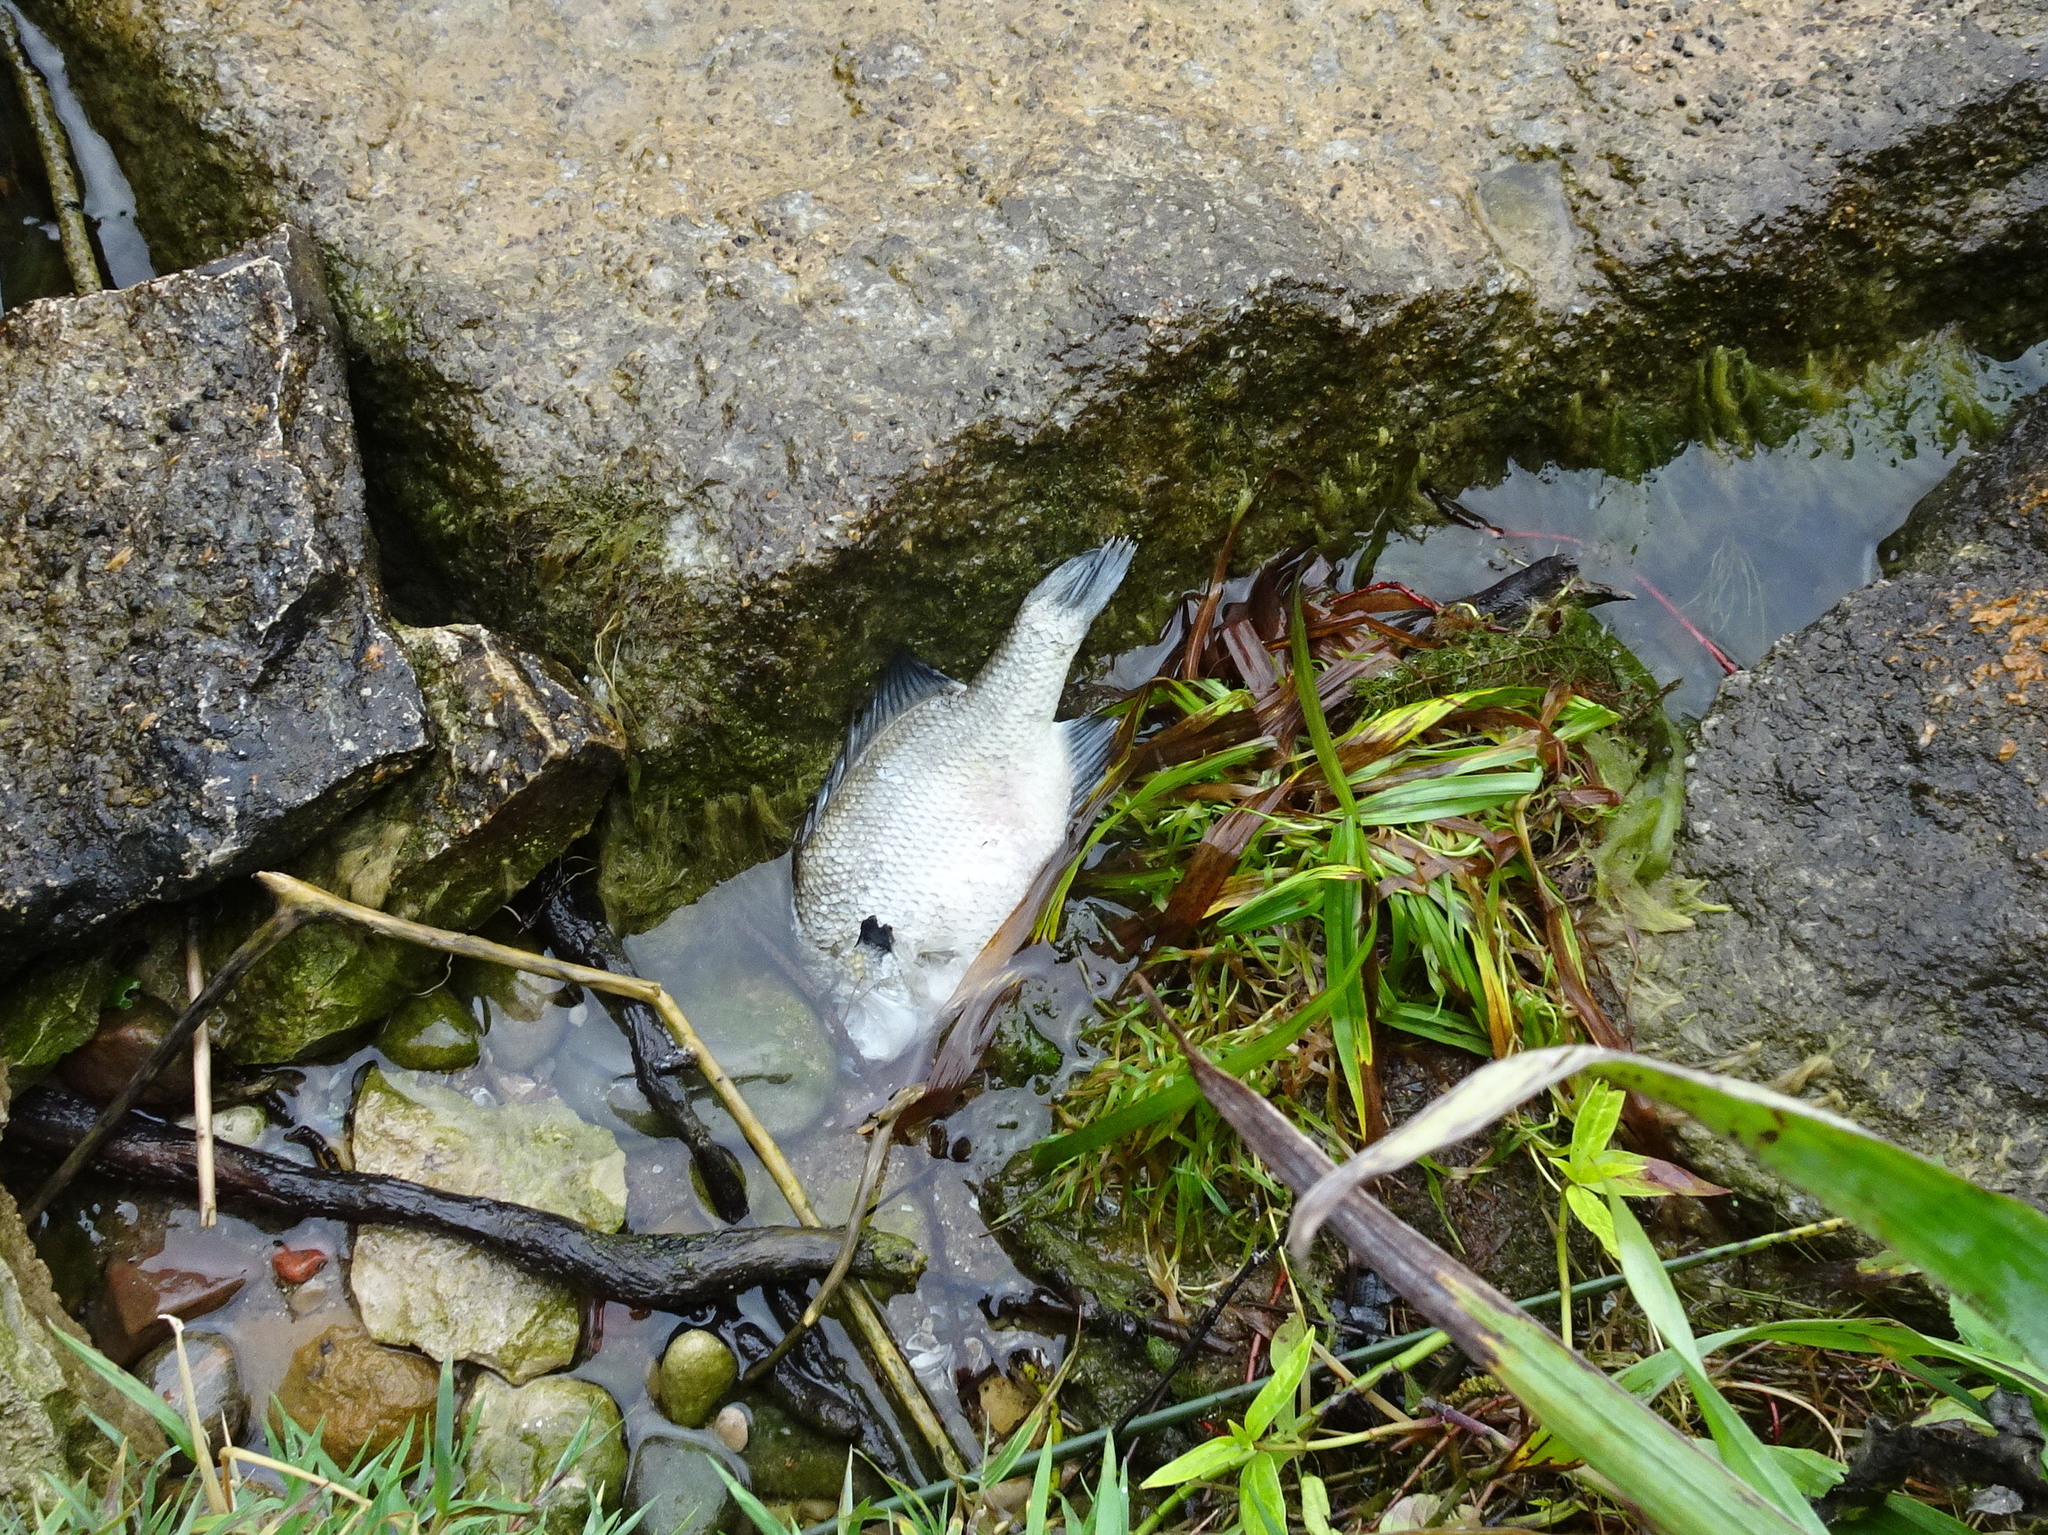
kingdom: Animalia
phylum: Chordata
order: Perciformes
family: Centrarchidae
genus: Lepomis
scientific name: Lepomis macrochirus
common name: Bluegill
